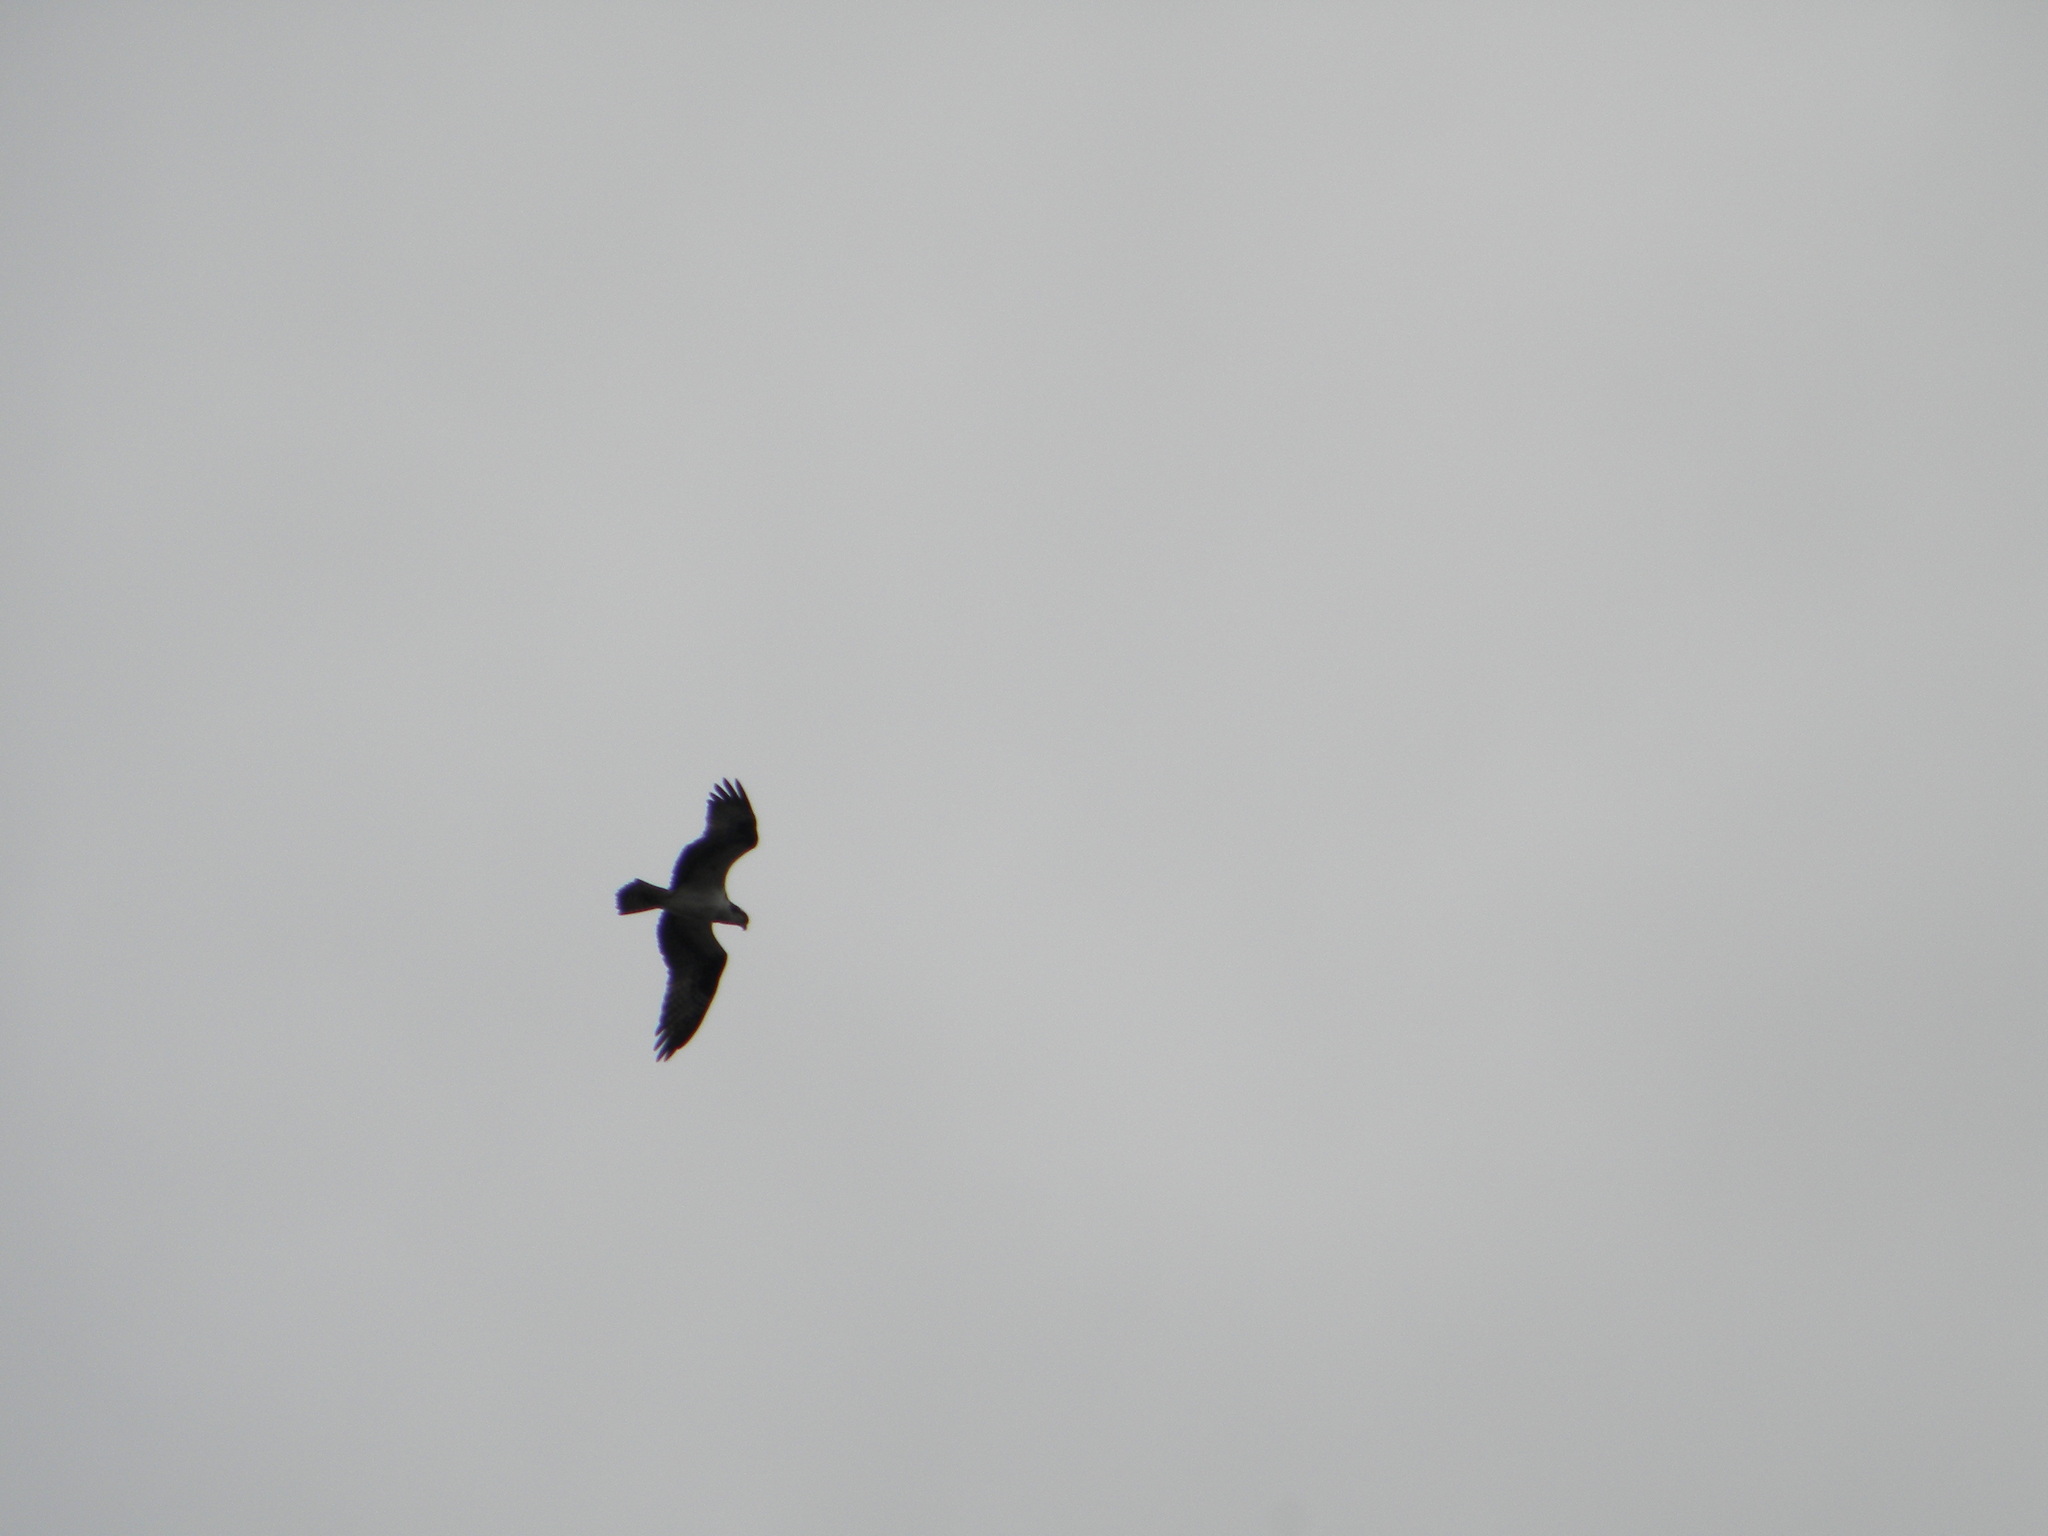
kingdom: Animalia
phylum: Chordata
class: Aves
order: Accipitriformes
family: Pandionidae
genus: Pandion
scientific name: Pandion haliaetus
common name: Osprey
